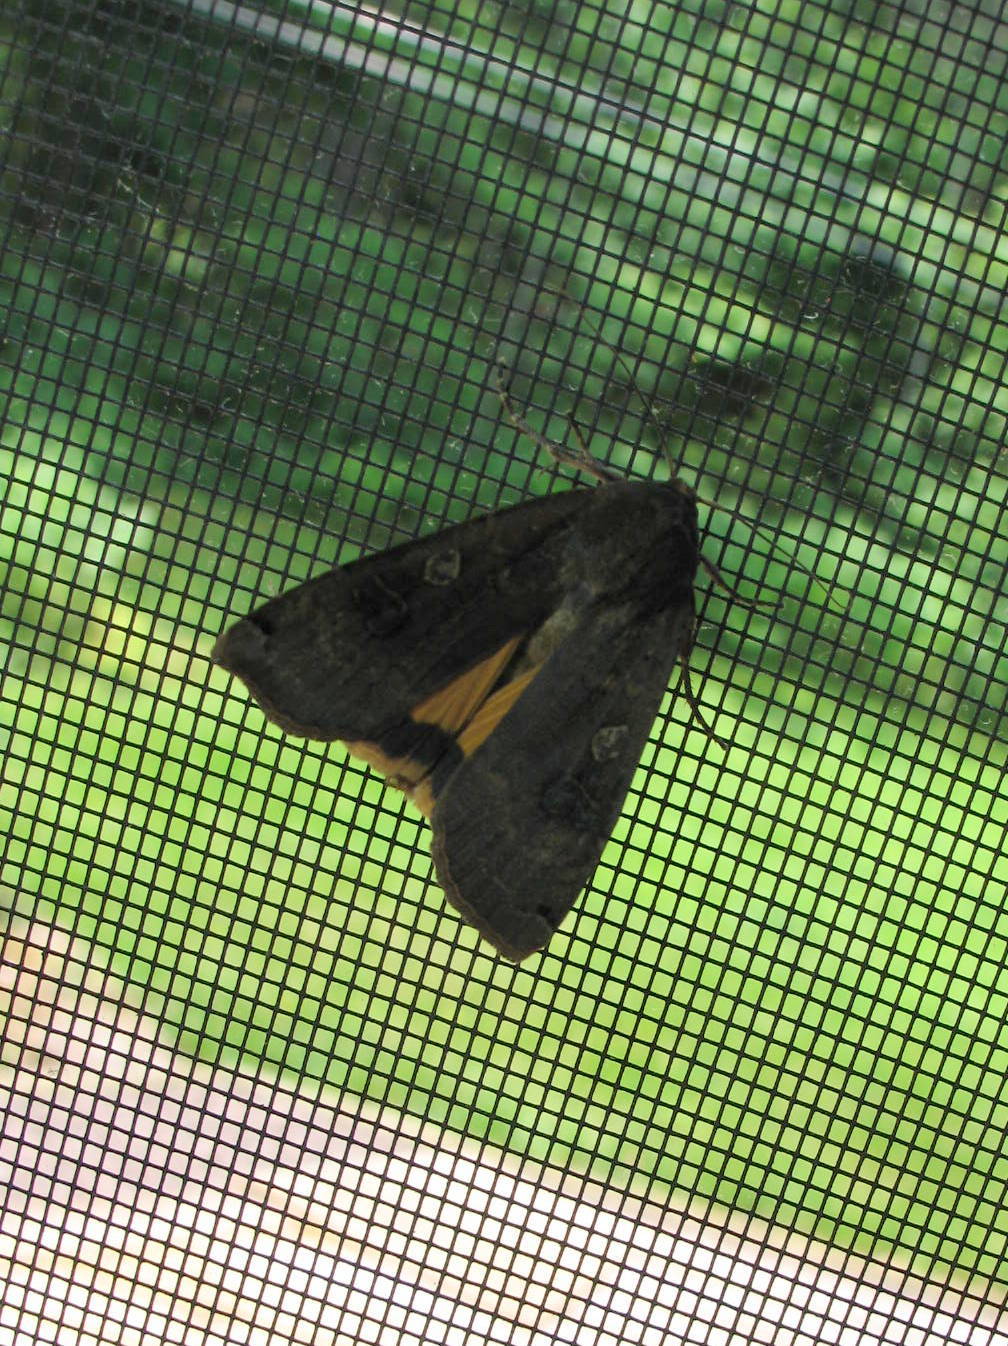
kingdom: Animalia
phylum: Arthropoda
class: Insecta
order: Lepidoptera
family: Noctuidae
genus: Noctua
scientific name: Noctua pronuba
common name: Large yellow underwing
